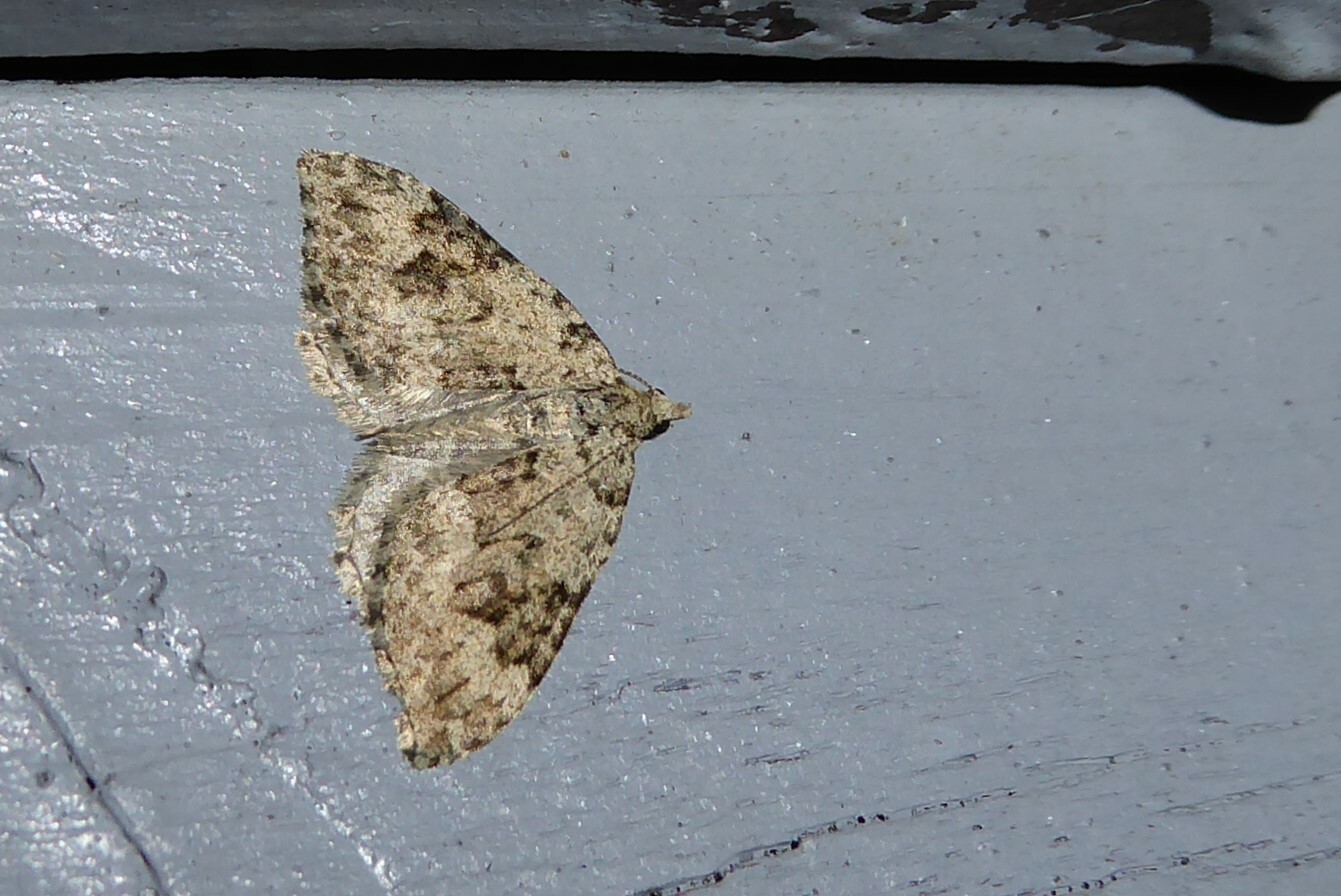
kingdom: Animalia
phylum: Arthropoda
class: Insecta
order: Lepidoptera
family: Geometridae
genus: Helastia
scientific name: Helastia cinerearia
